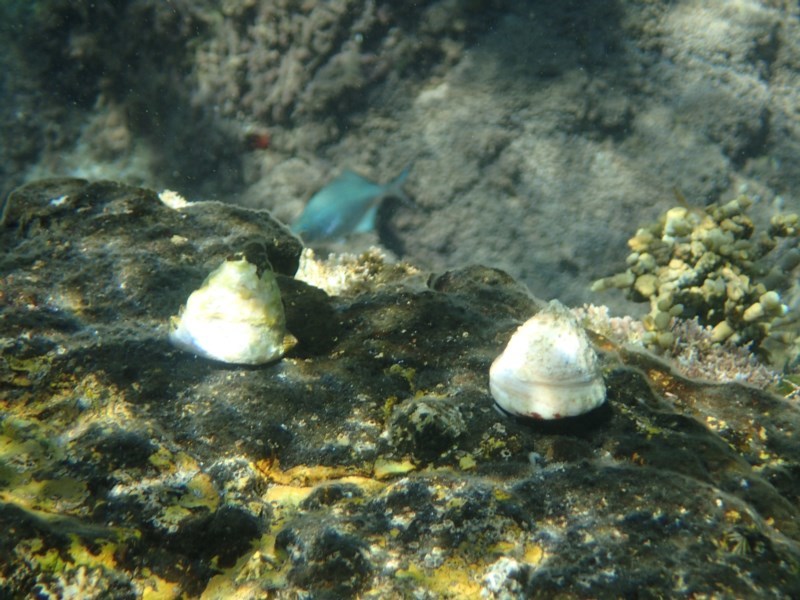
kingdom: Animalia
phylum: Mollusca
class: Gastropoda
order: Trochida
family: Turbinidae
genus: Astralium
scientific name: Astralium tentoriiforme
